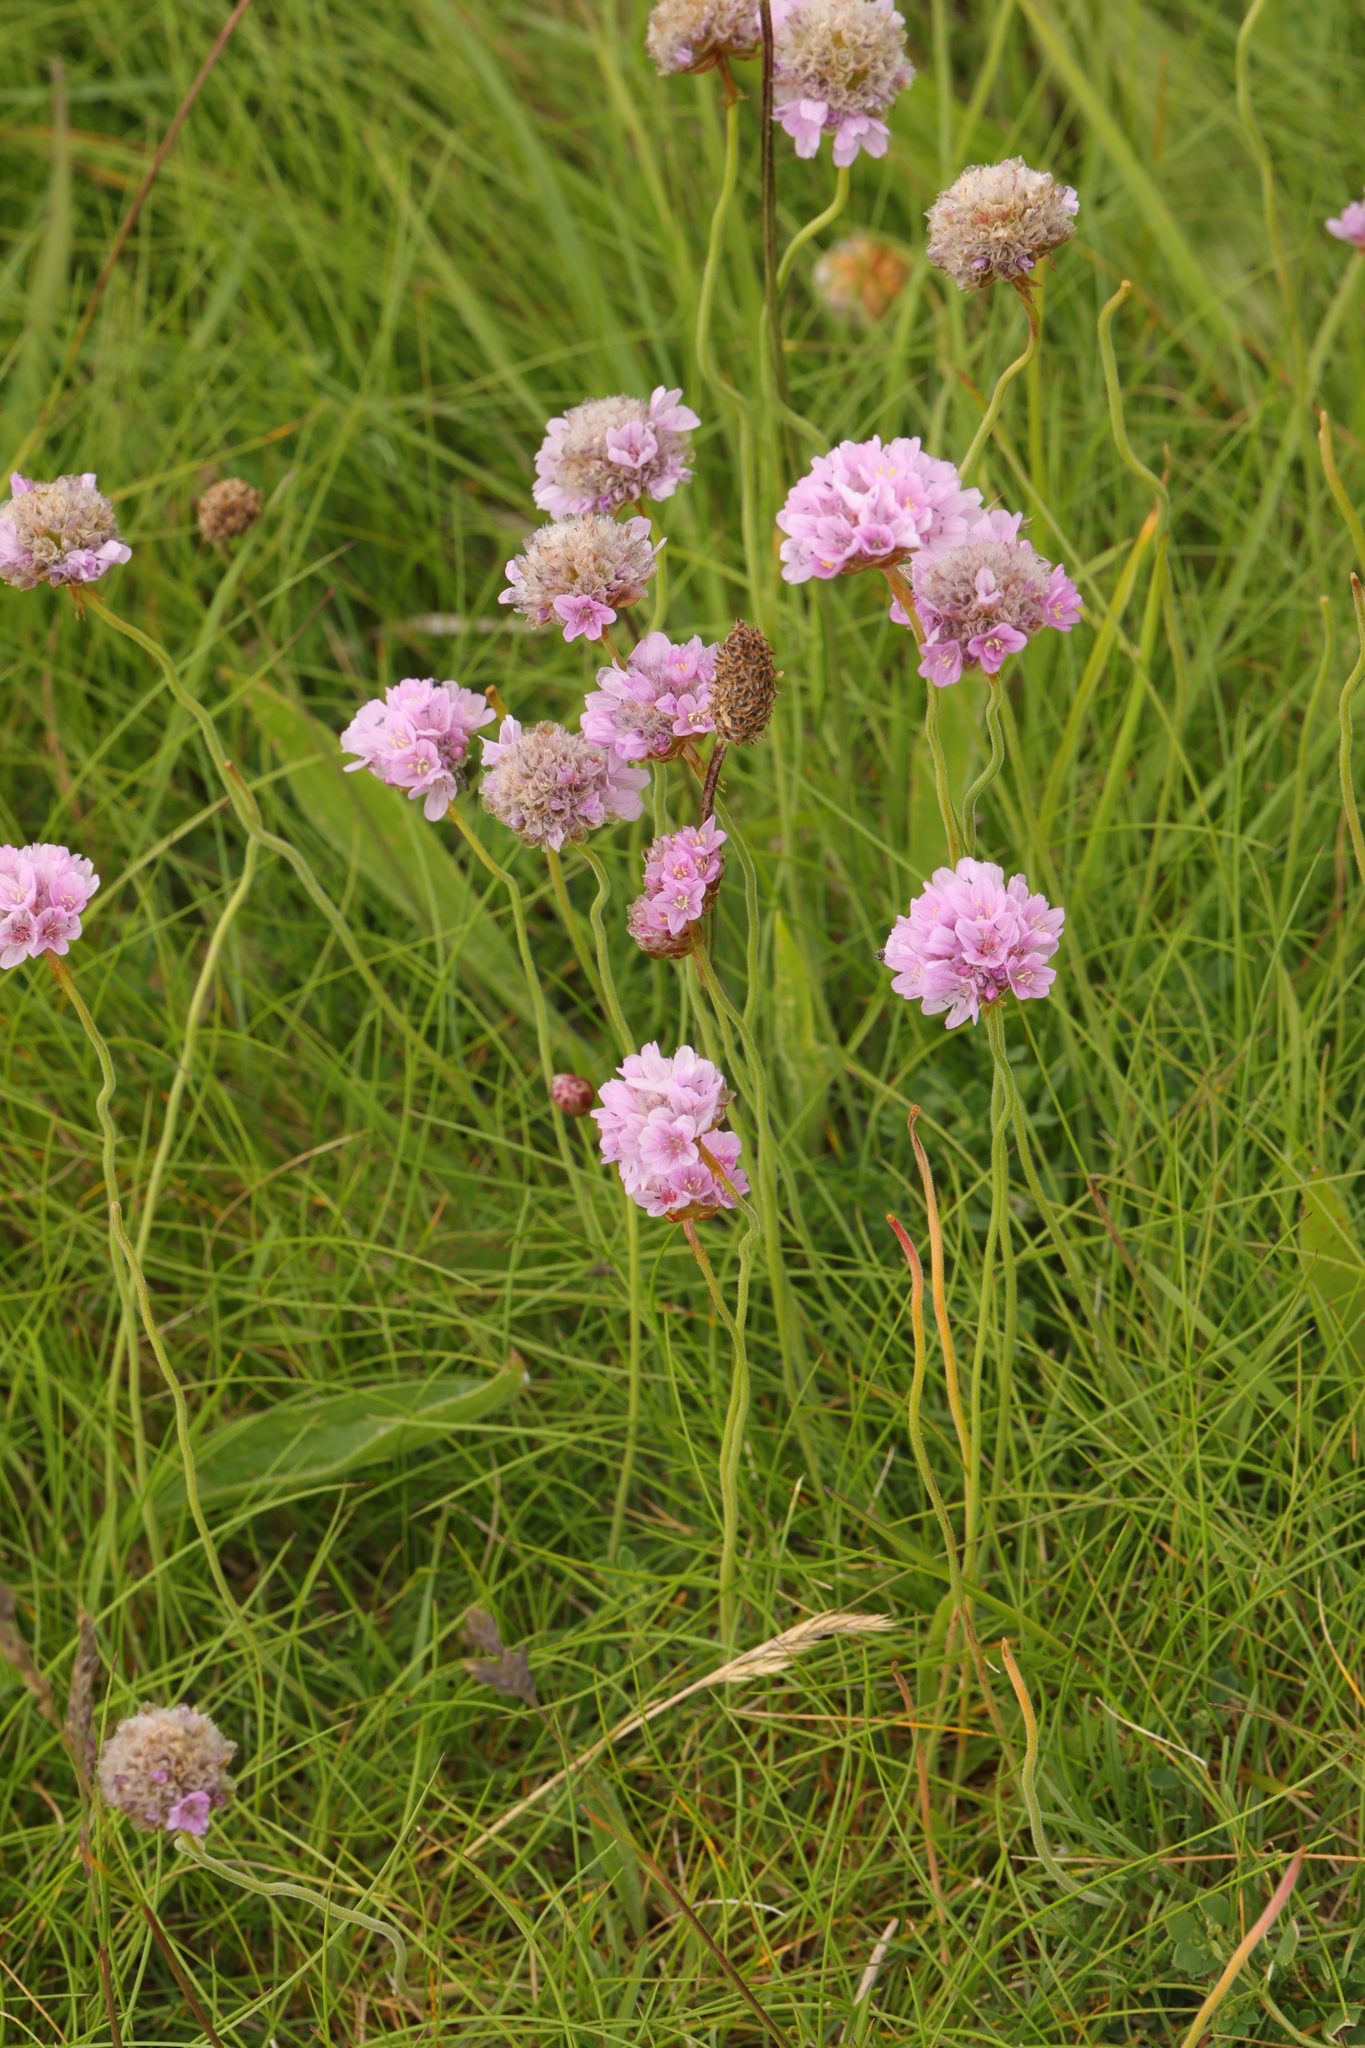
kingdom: Plantae
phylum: Tracheophyta
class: Magnoliopsida
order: Caryophyllales
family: Plumbaginaceae
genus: Armeria
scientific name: Armeria maritima
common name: Thrift
